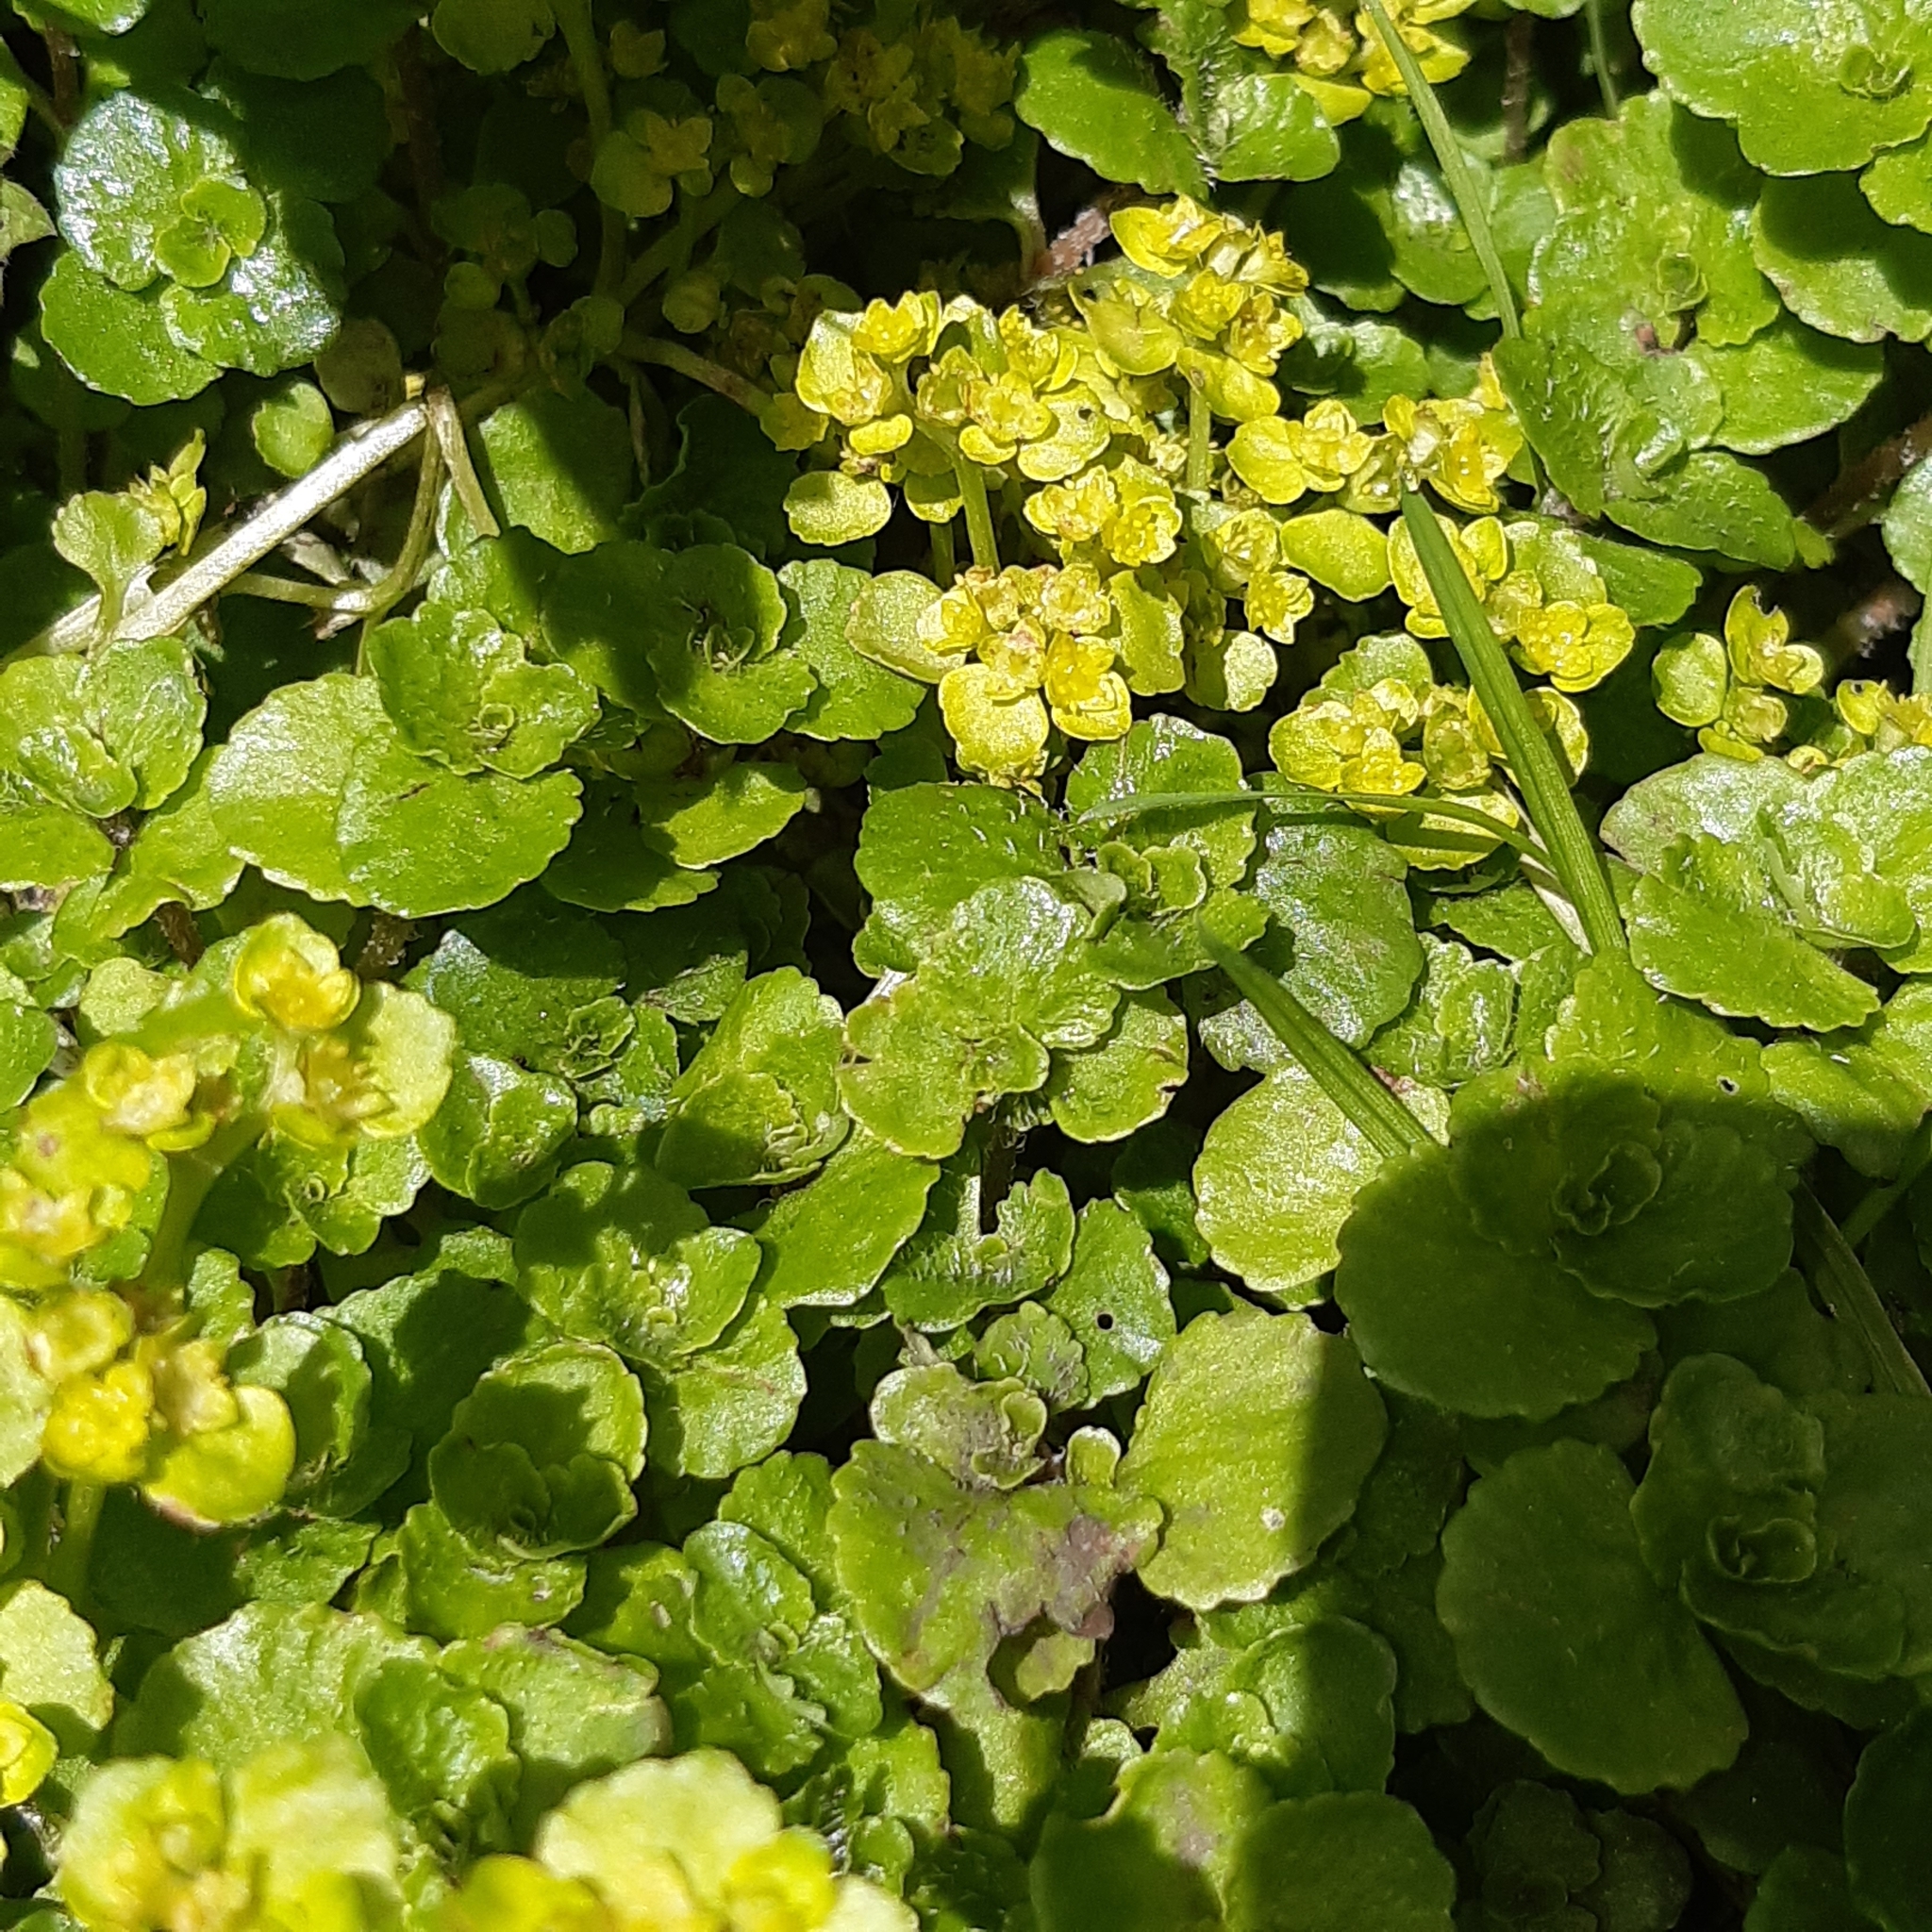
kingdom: Plantae
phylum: Tracheophyta
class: Magnoliopsida
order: Saxifragales
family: Saxifragaceae
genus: Chrysosplenium
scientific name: Chrysosplenium oppositifolium
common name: Opposite-leaved golden-saxifrage
